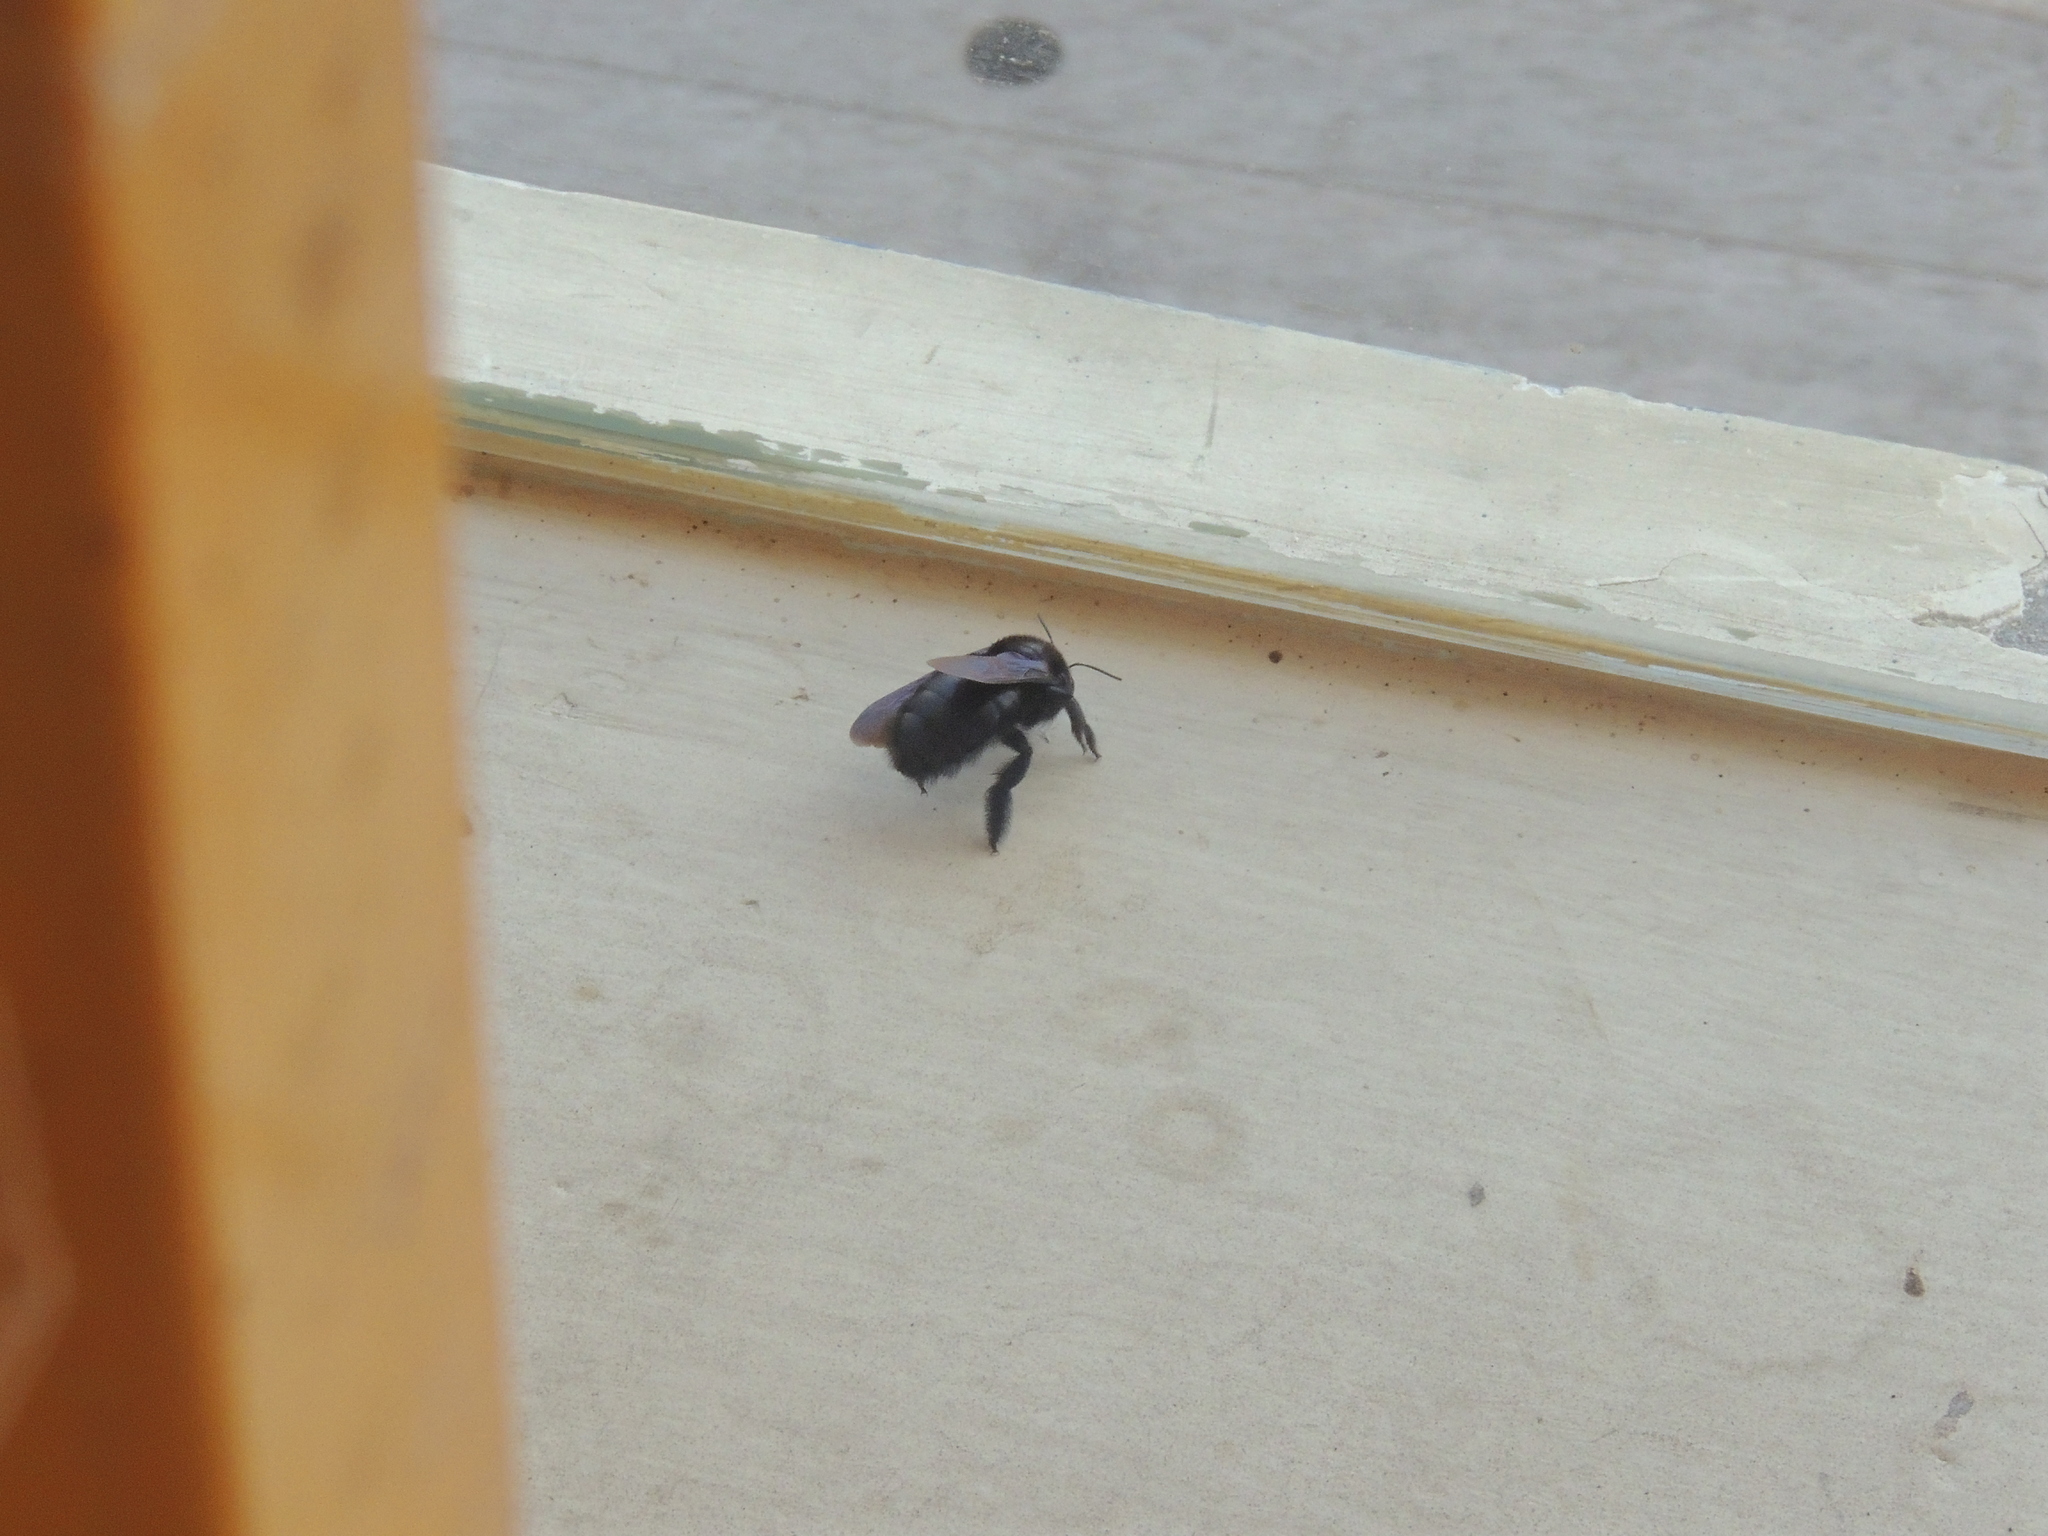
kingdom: Animalia
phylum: Arthropoda
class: Insecta
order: Hymenoptera
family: Apidae
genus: Xylocopa
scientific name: Xylocopa darwini
